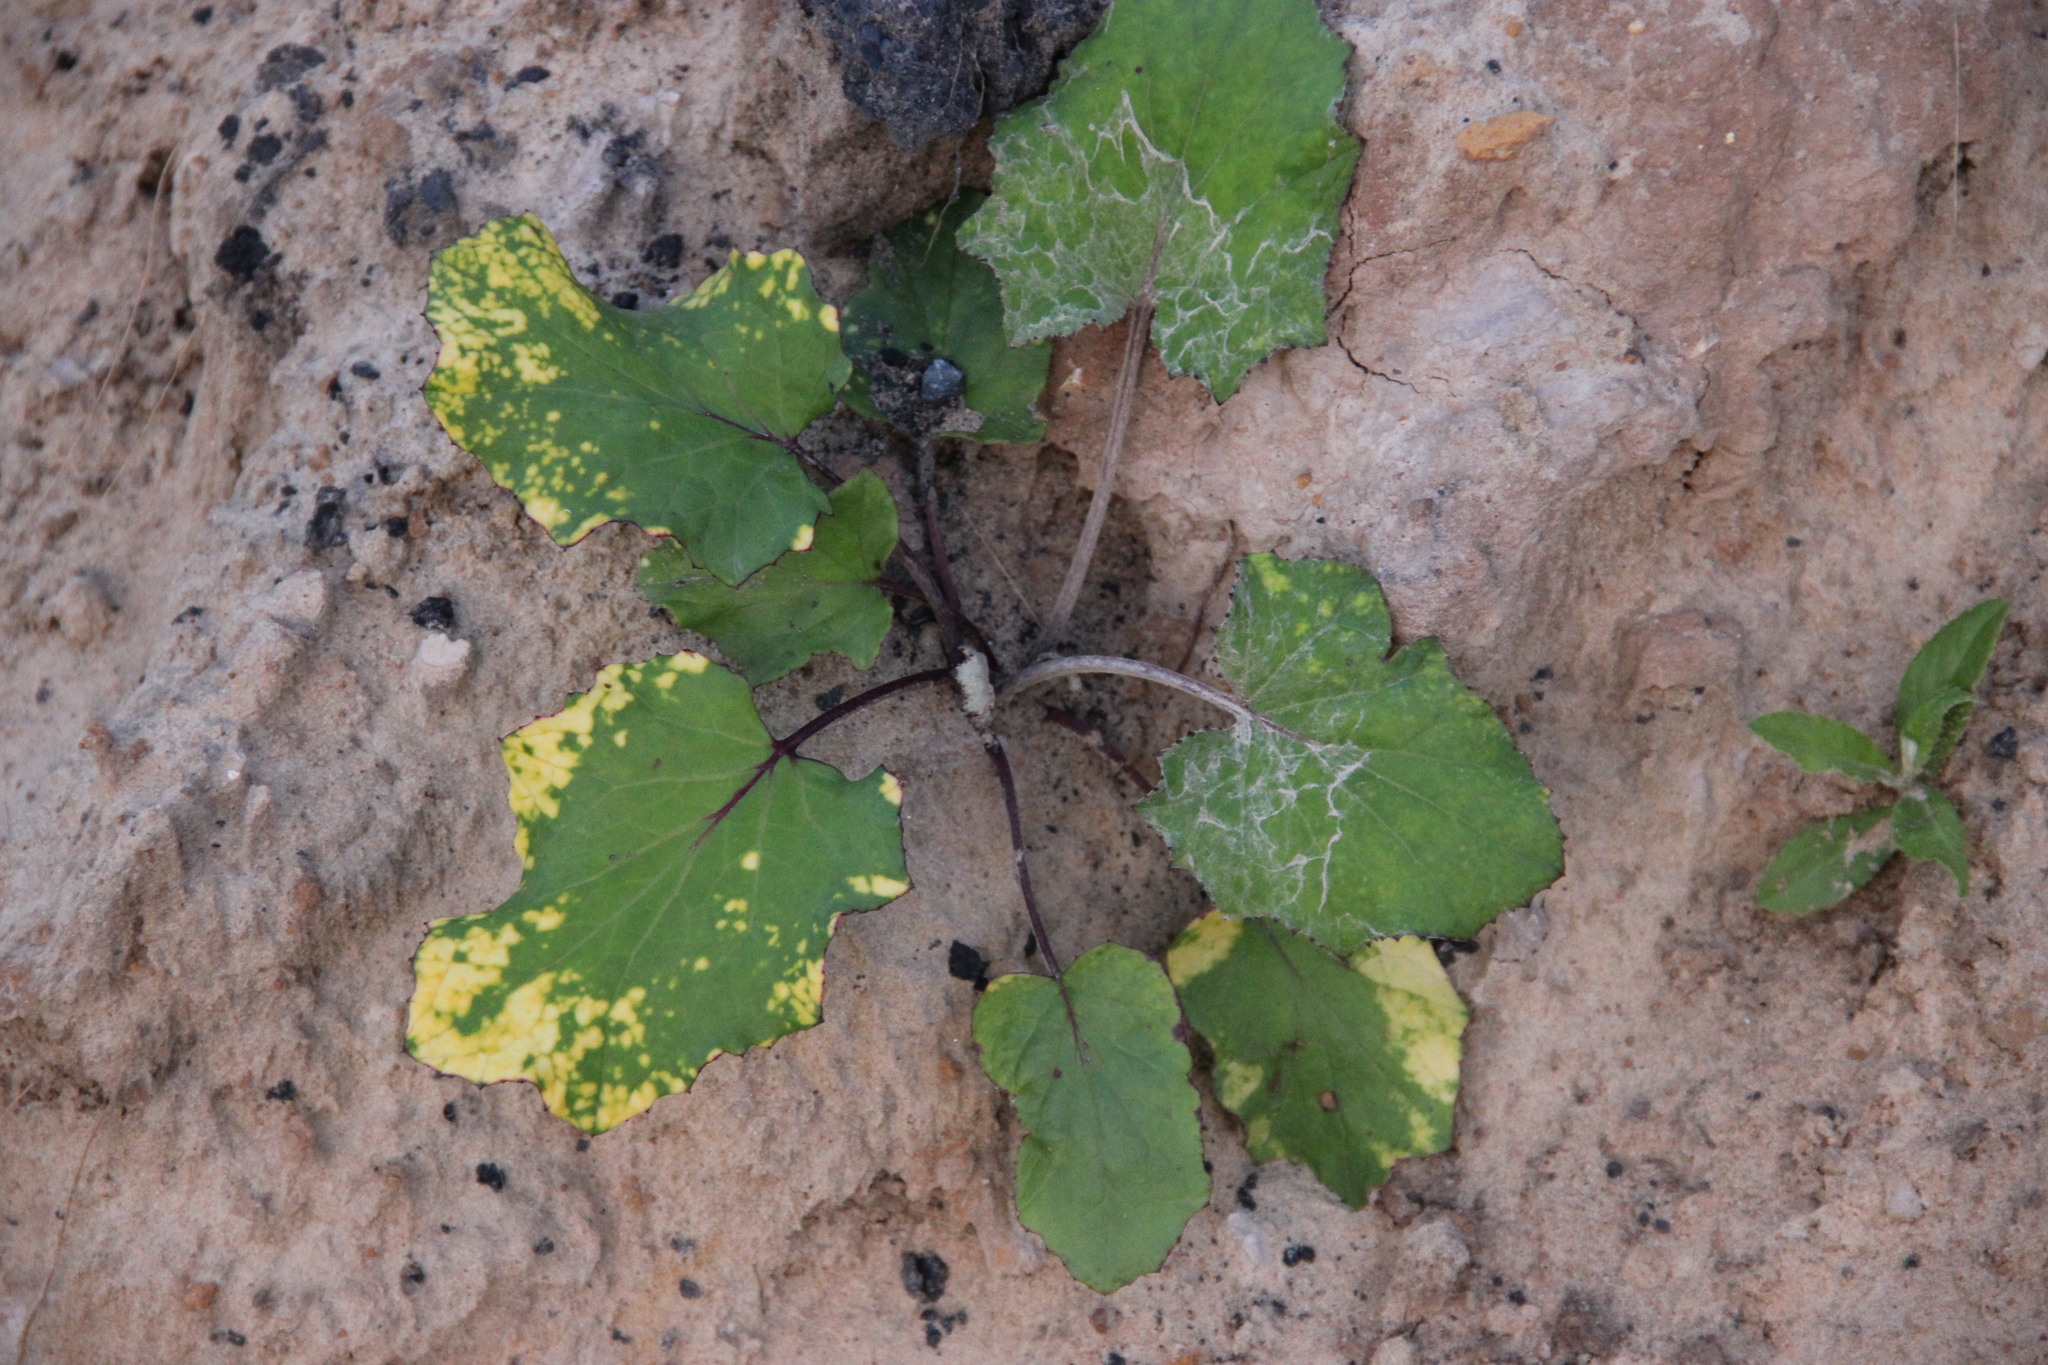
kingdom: Plantae
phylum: Tracheophyta
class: Magnoliopsida
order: Asterales
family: Asteraceae
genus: Tussilago
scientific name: Tussilago farfara
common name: Coltsfoot
